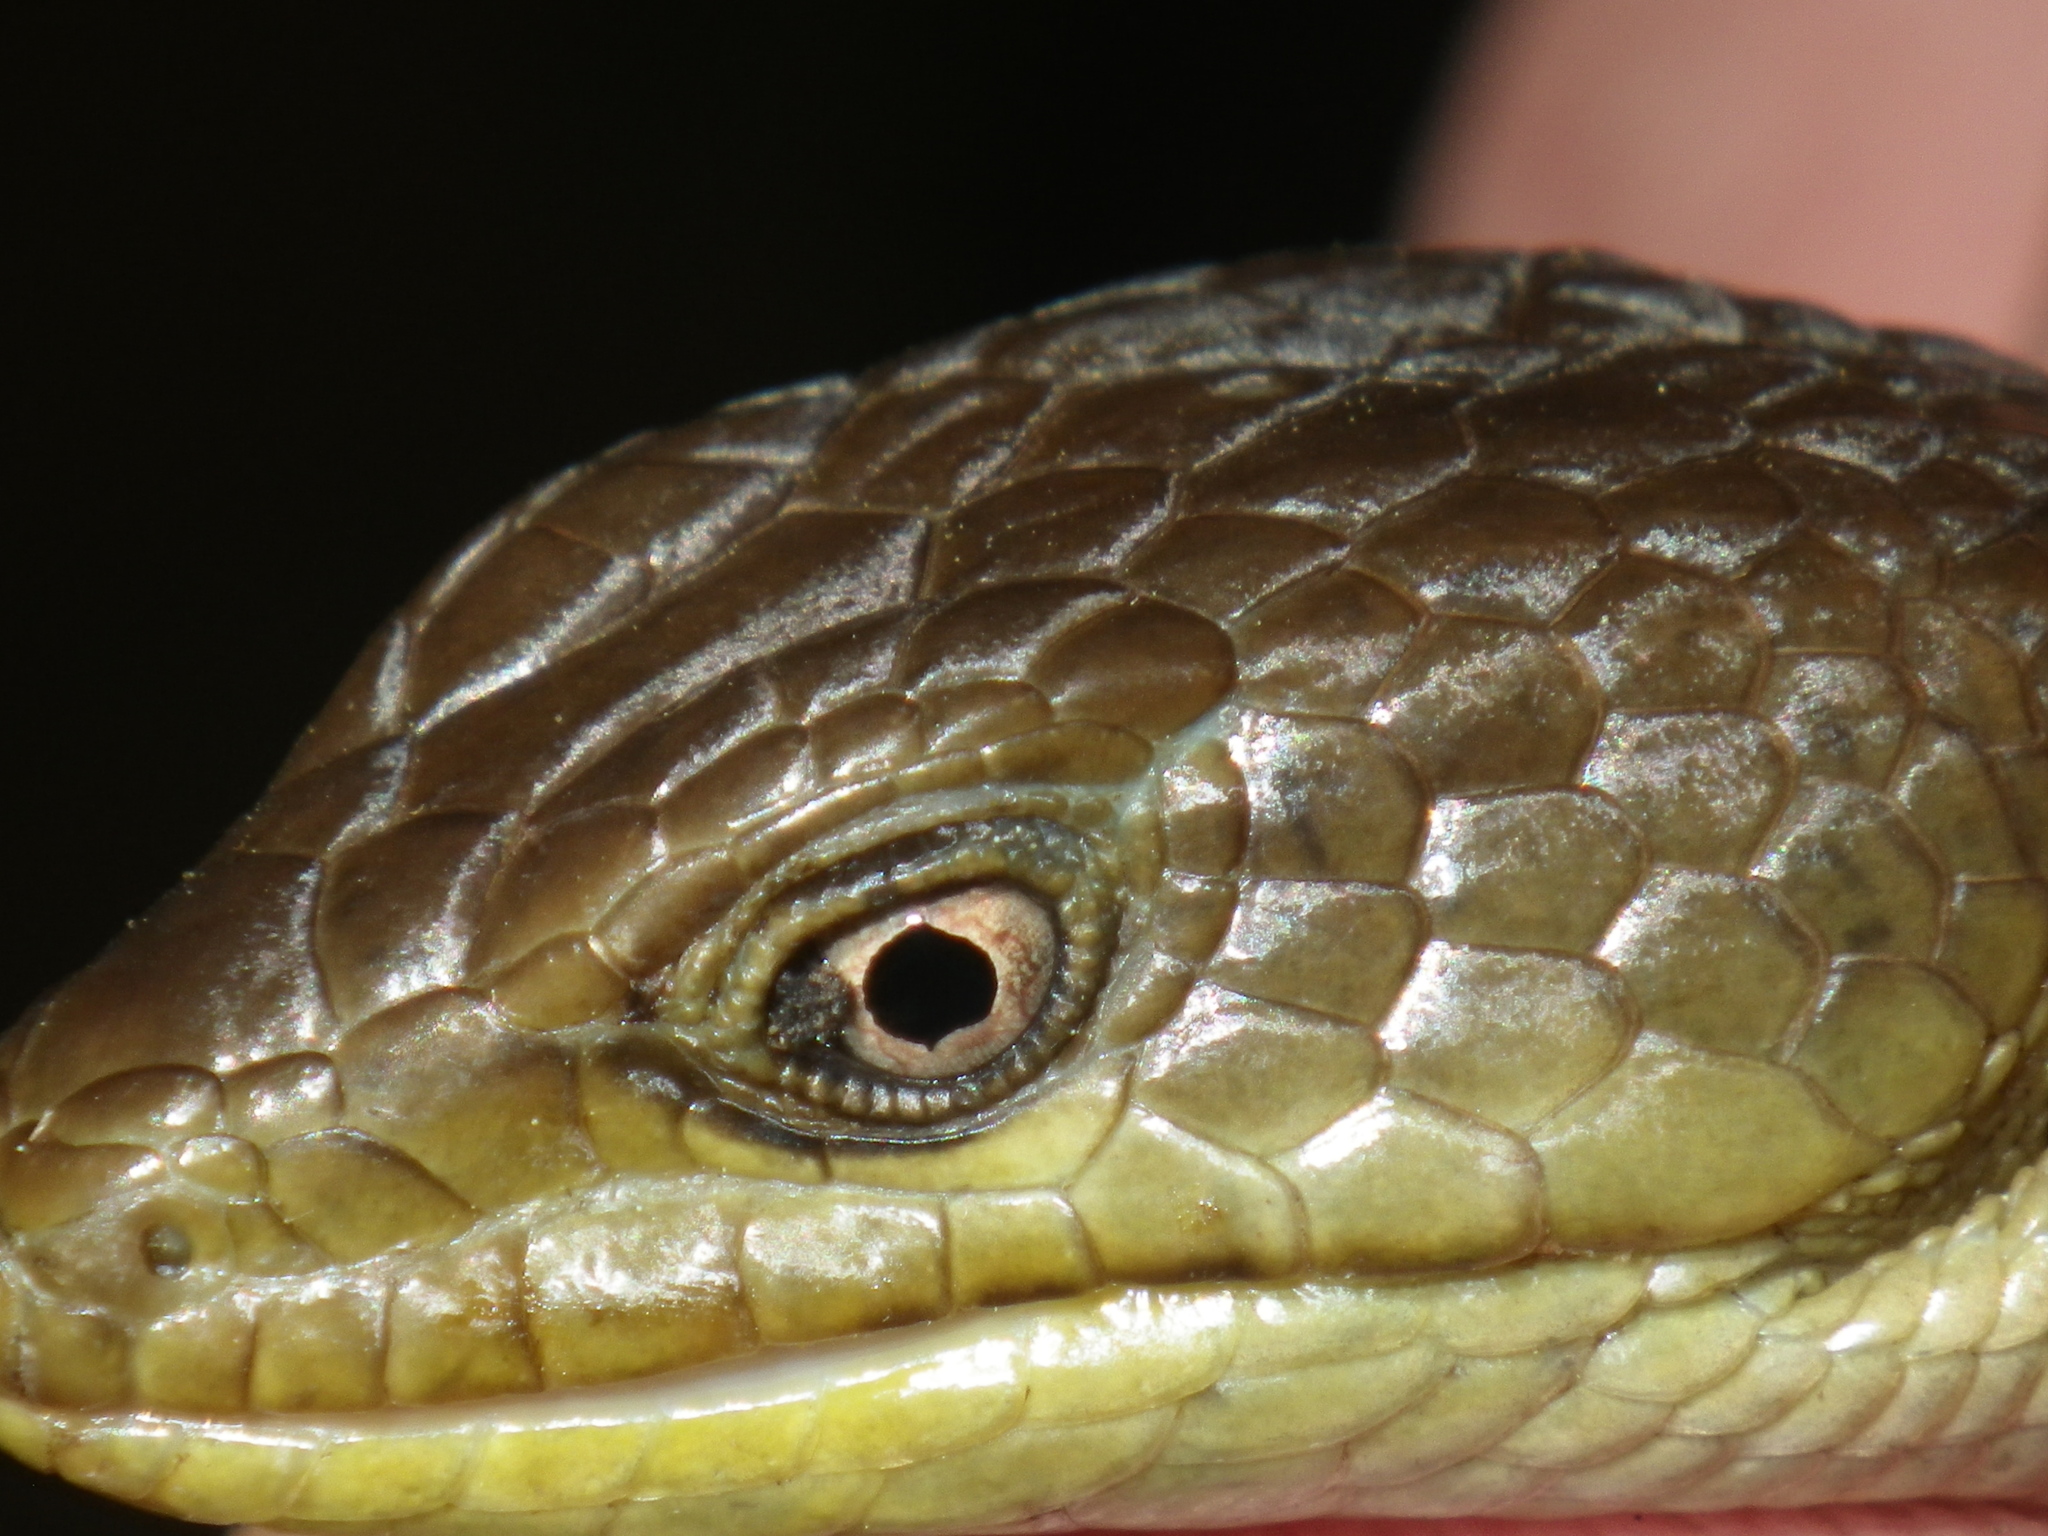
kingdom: Animalia
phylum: Chordata
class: Squamata
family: Anguidae
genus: Elgaria
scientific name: Elgaria multicarinata
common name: Southern alligator lizard
